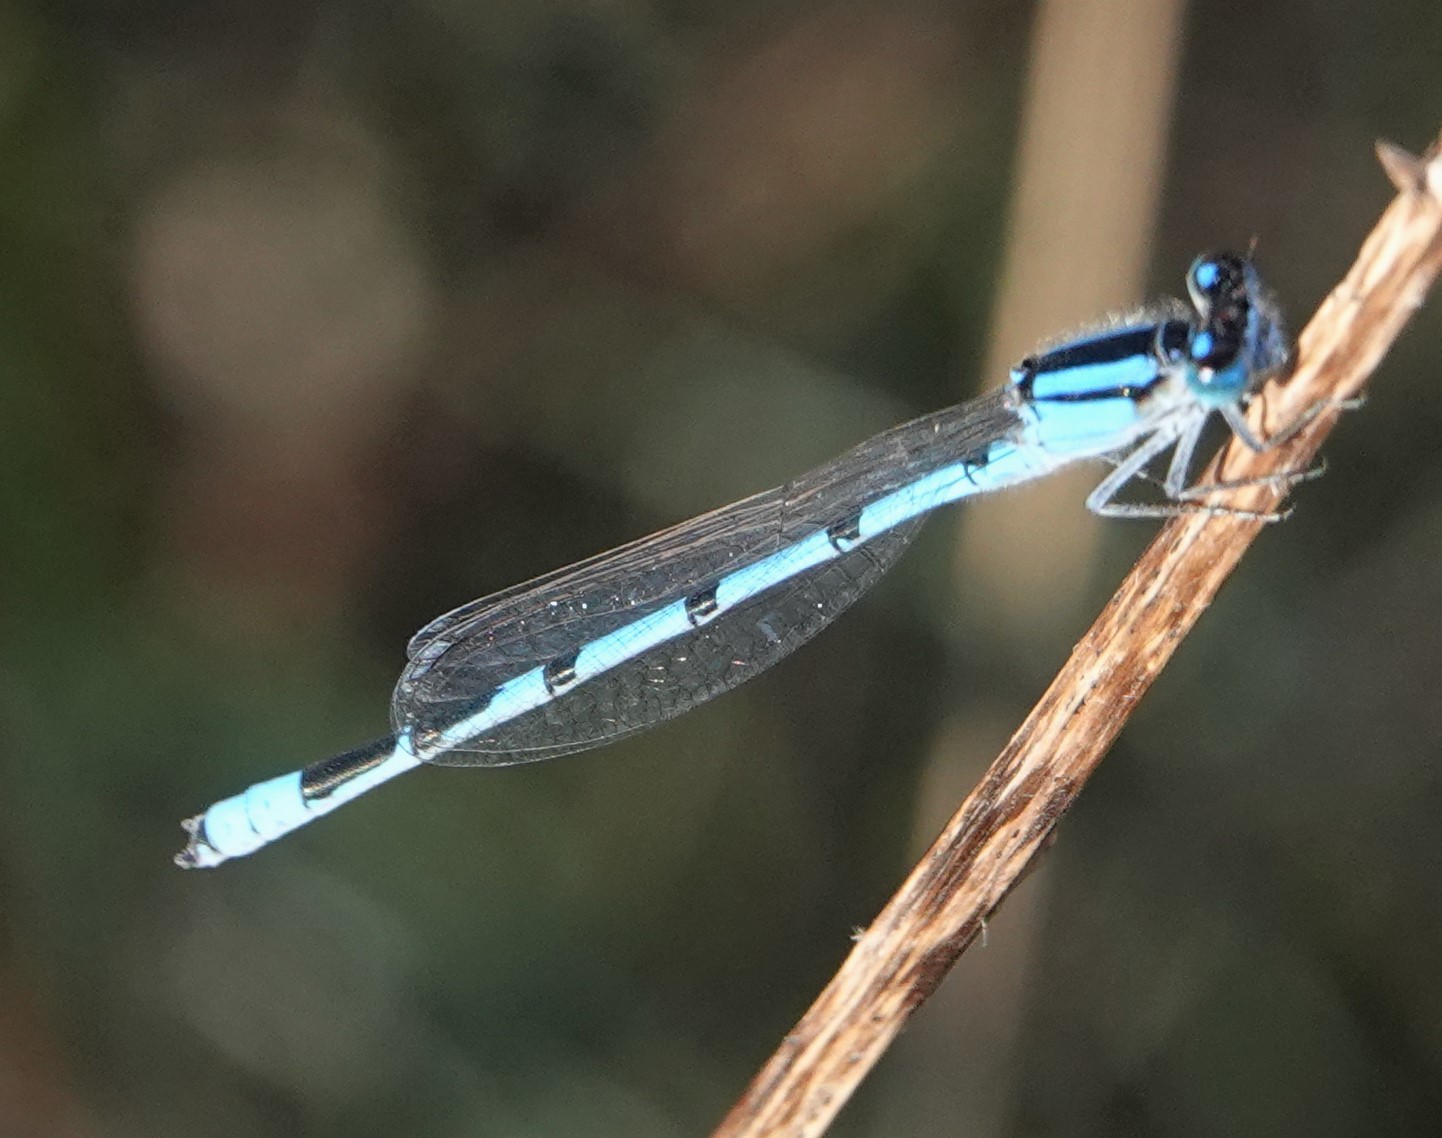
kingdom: Animalia
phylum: Arthropoda
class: Insecta
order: Odonata
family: Coenagrionidae
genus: Enallagma
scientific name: Enallagma civile
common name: Damselfly
